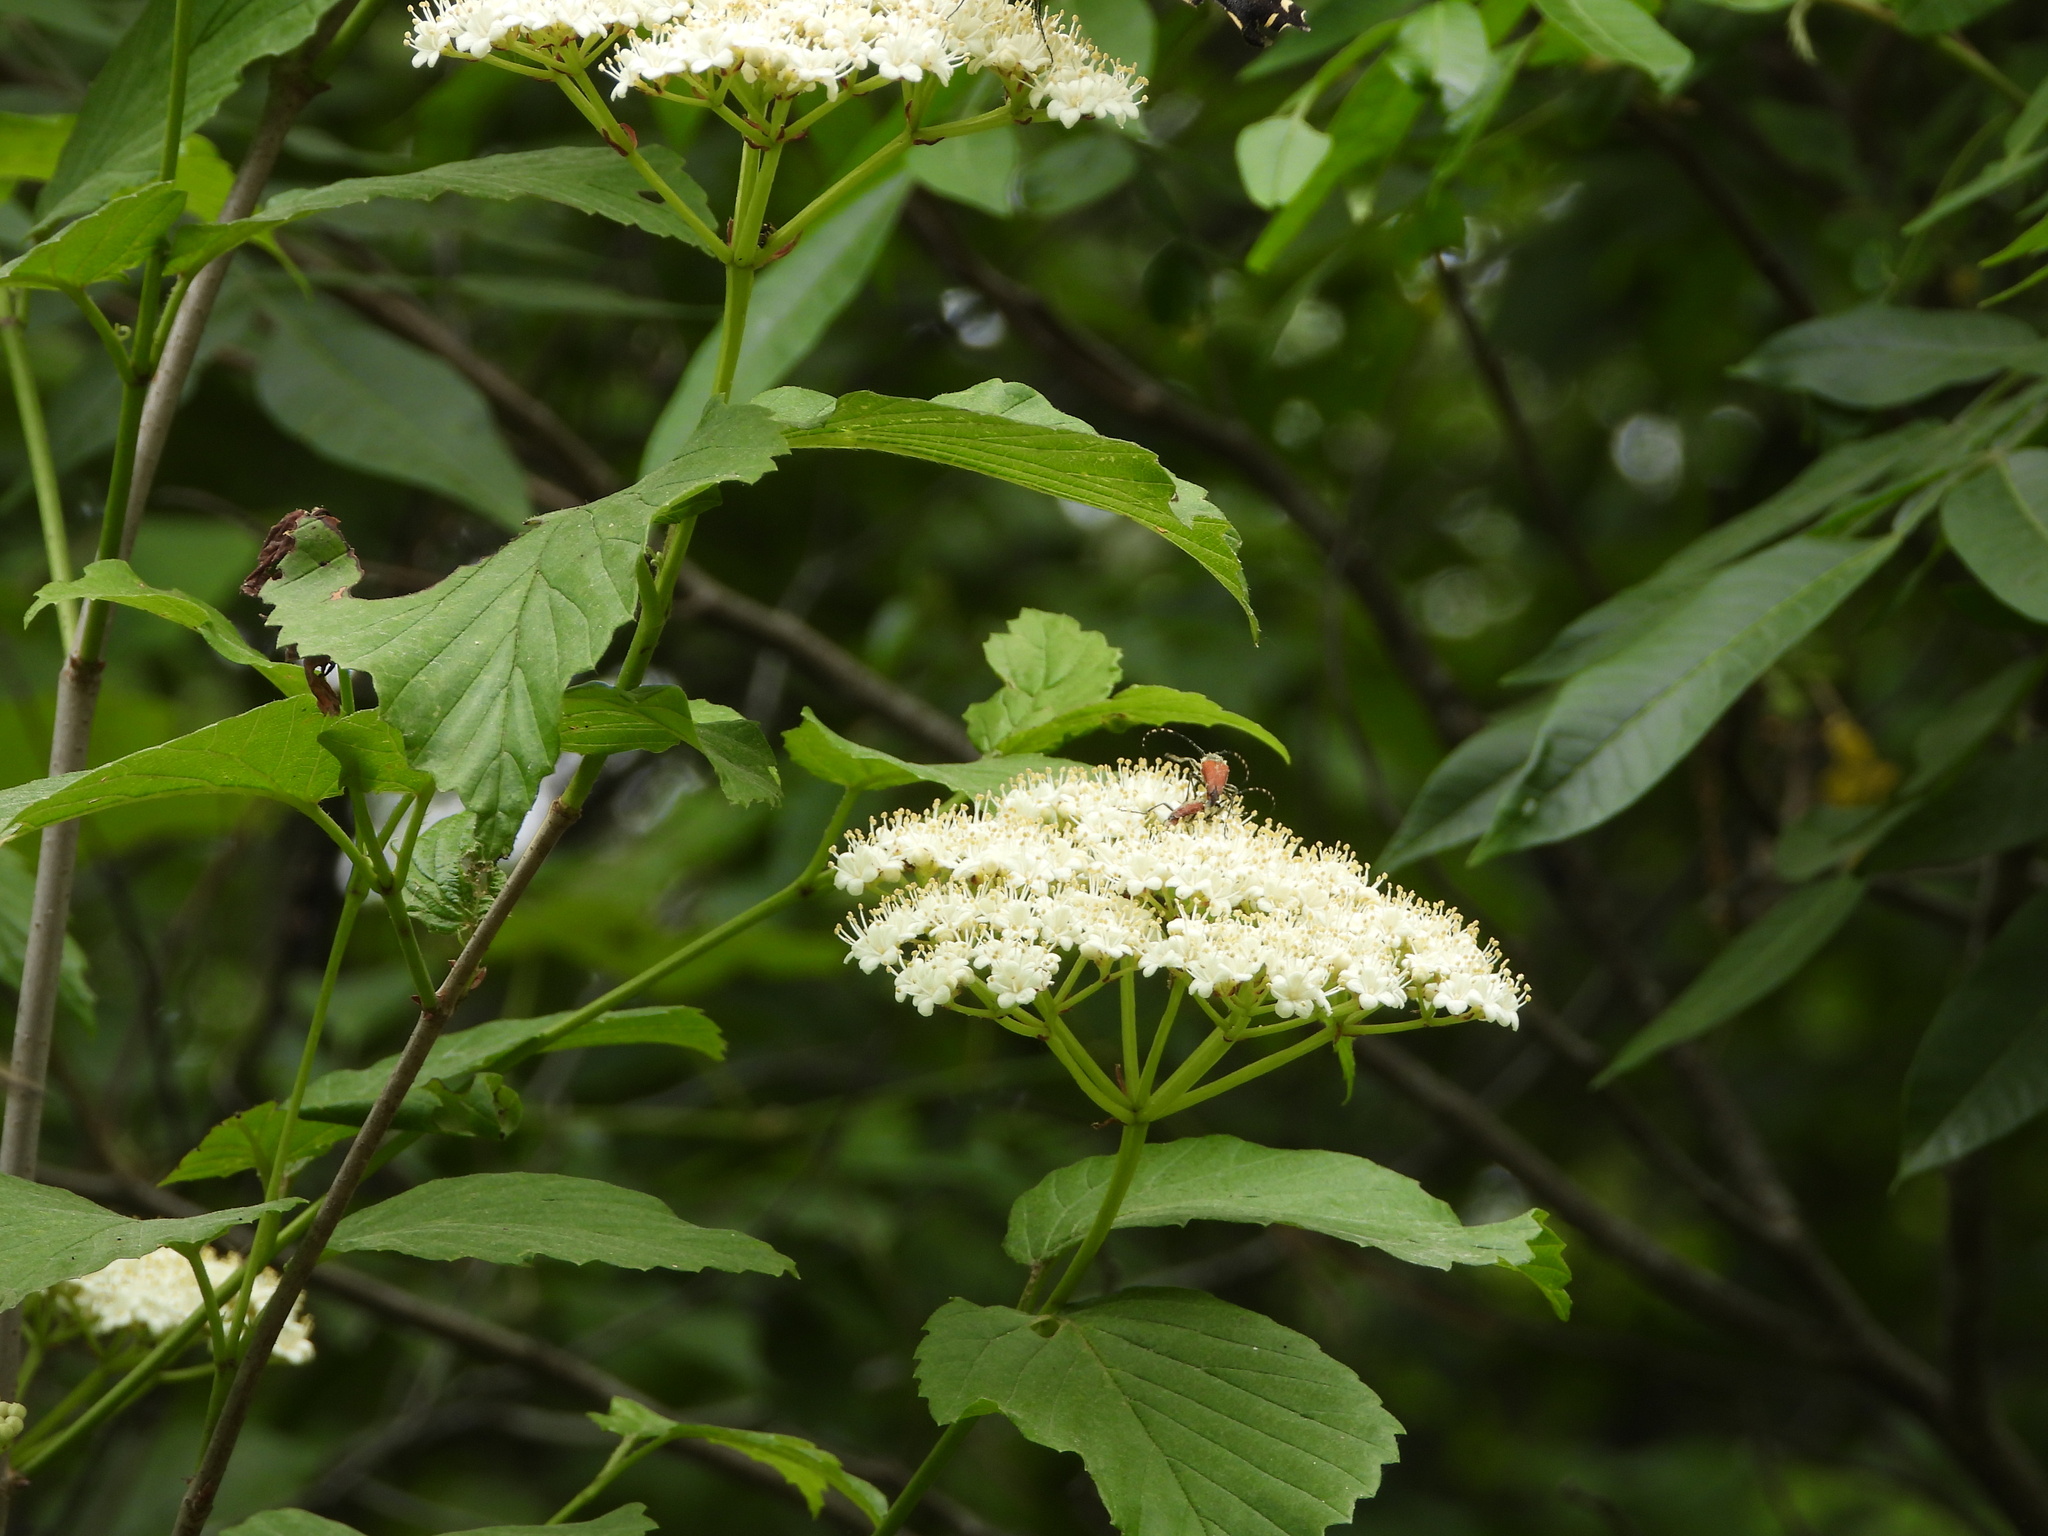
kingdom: Animalia
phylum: Arthropoda
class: Insecta
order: Coleoptera
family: Cerambycidae
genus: Brachyleptura
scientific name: Brachyleptura rubrica
